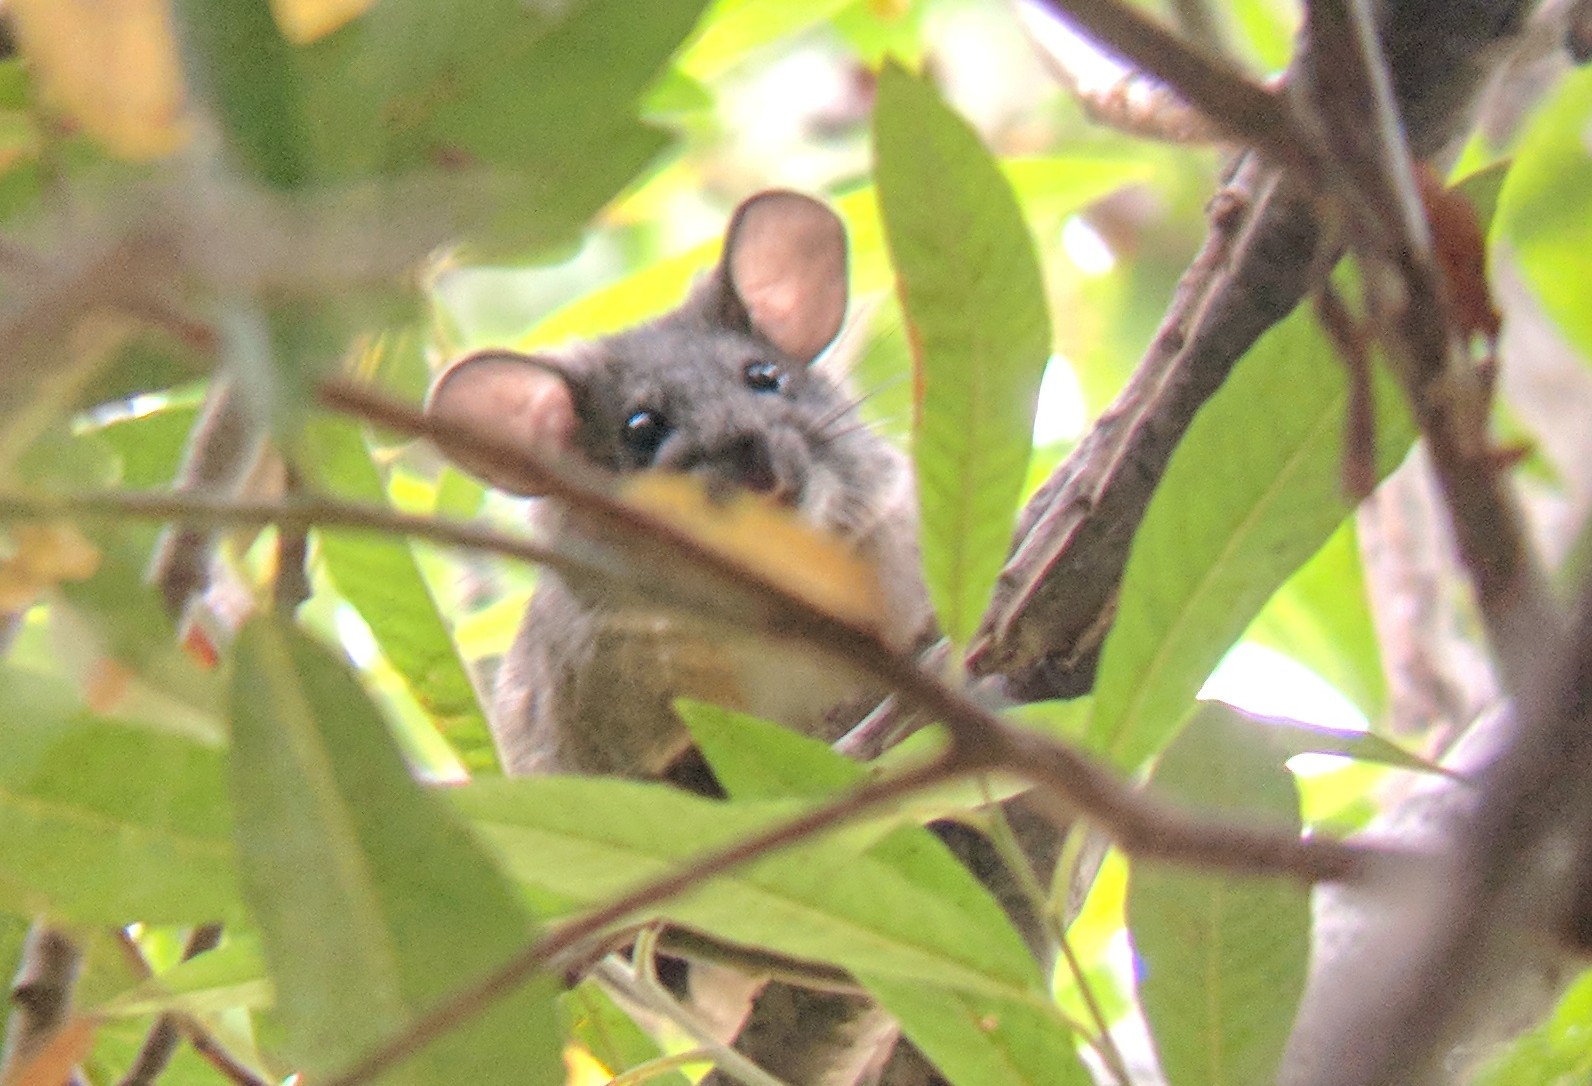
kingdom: Animalia
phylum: Chordata
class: Mammalia
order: Rodentia
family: Cricetidae
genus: Neotoma
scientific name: Neotoma macrotis
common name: Big-eared woodrat
